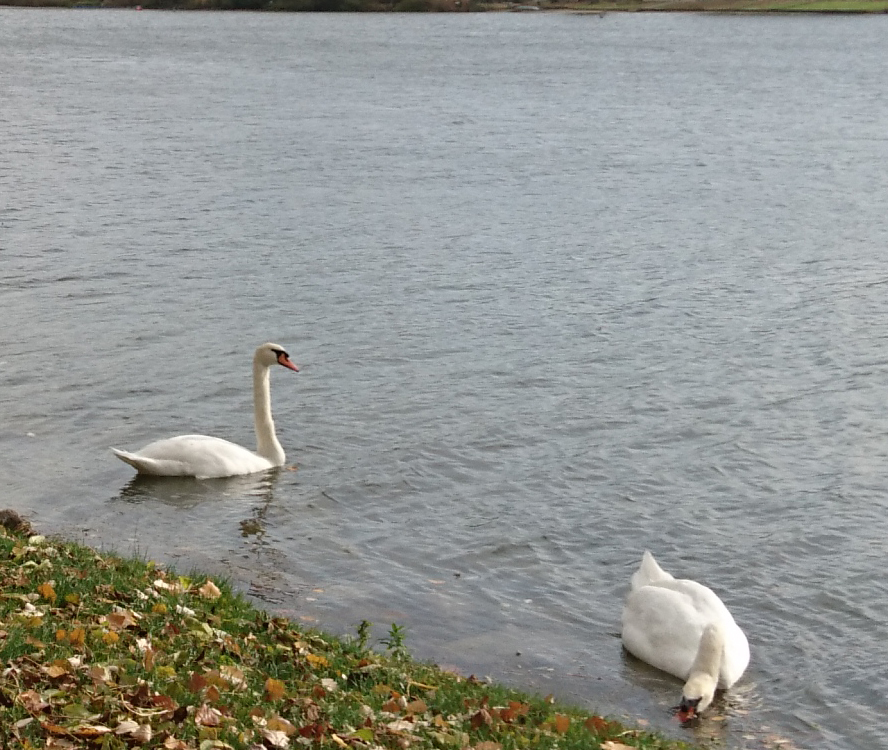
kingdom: Animalia
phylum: Chordata
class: Aves
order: Anseriformes
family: Anatidae
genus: Cygnus
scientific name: Cygnus olor
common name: Mute swan
